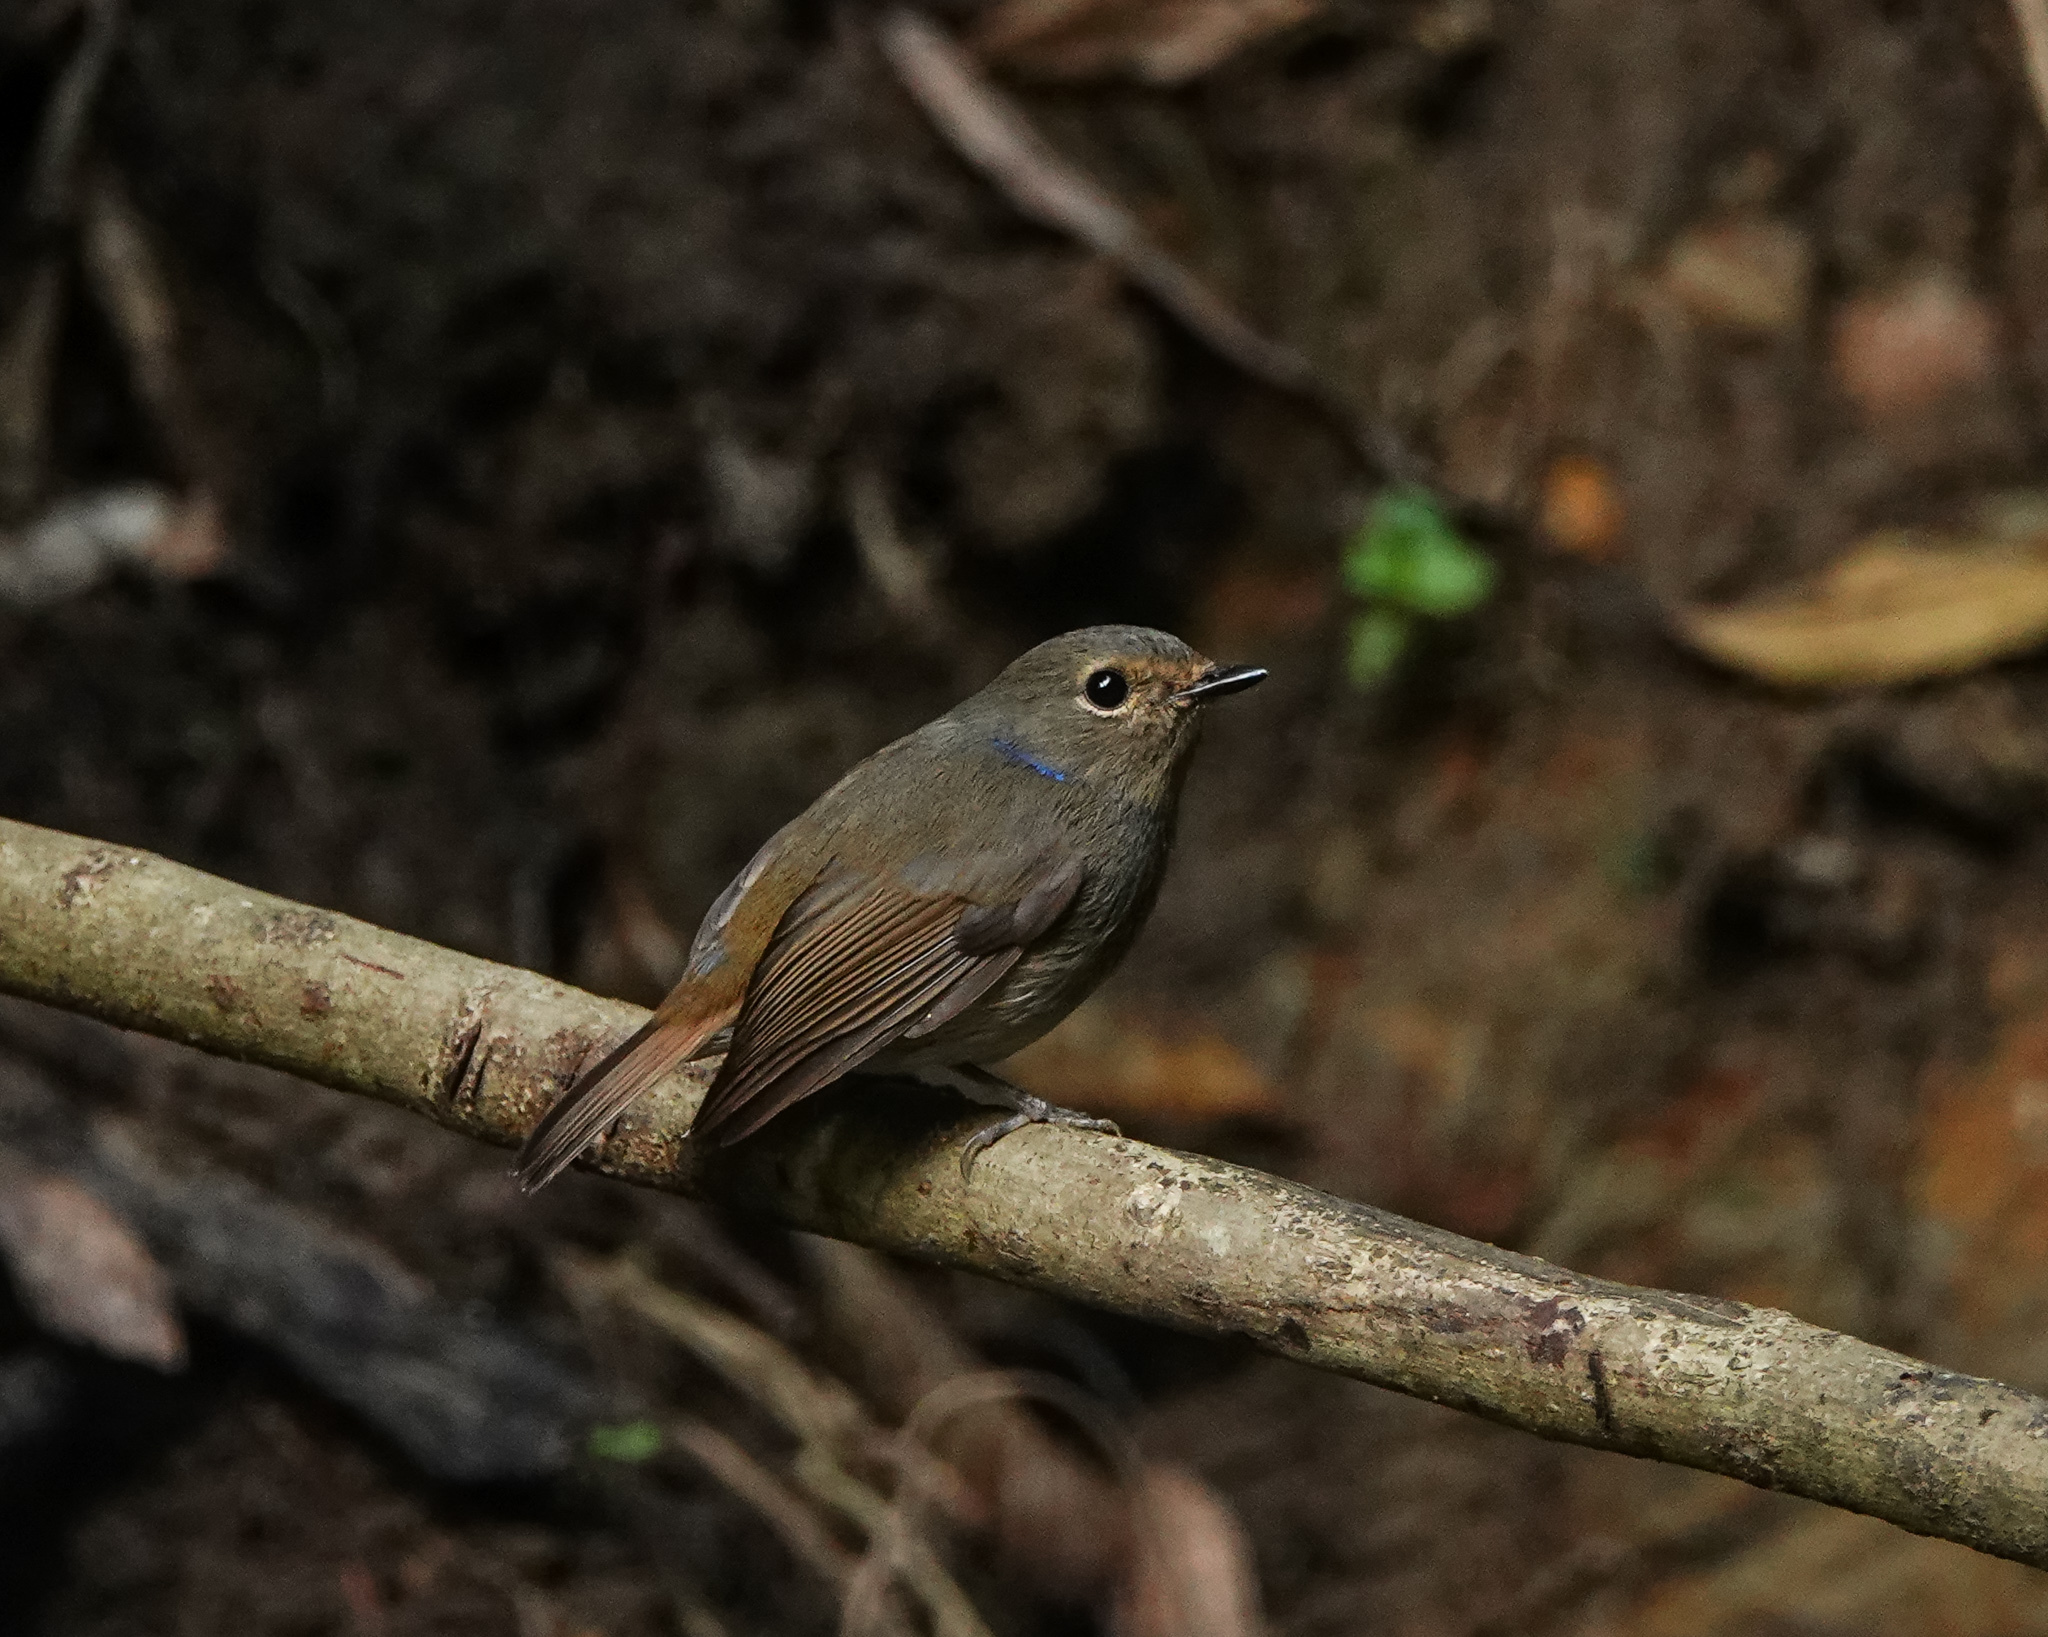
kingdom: Animalia
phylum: Chordata
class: Aves
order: Passeriformes
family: Muscicapidae
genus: Niltava
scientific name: Niltava macgrigoriae
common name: Small niltava
